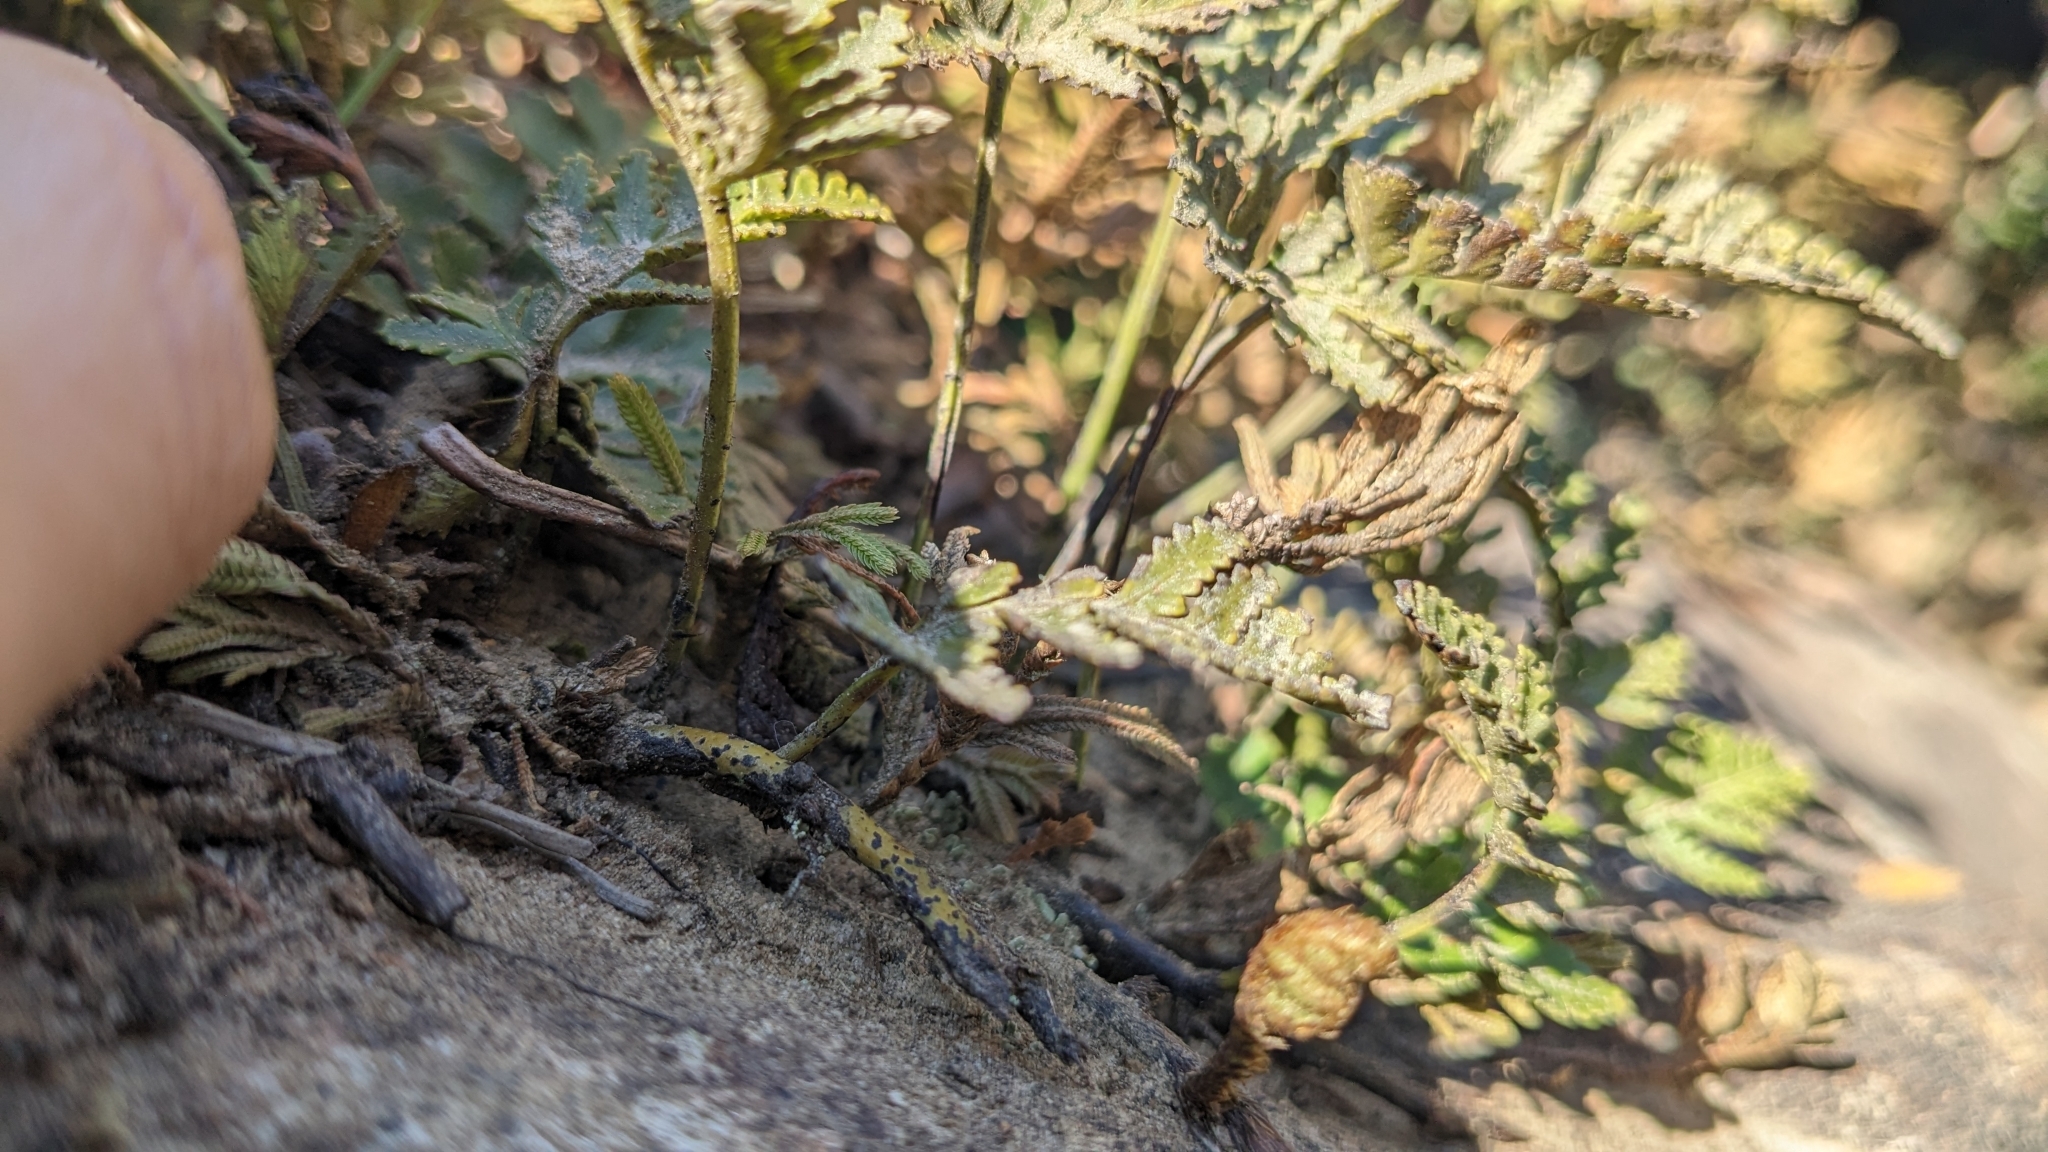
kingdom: Plantae
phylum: Tracheophyta
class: Polypodiopsida
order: Polypodiales
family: Davalliaceae
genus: Davallia
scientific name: Davallia repens
